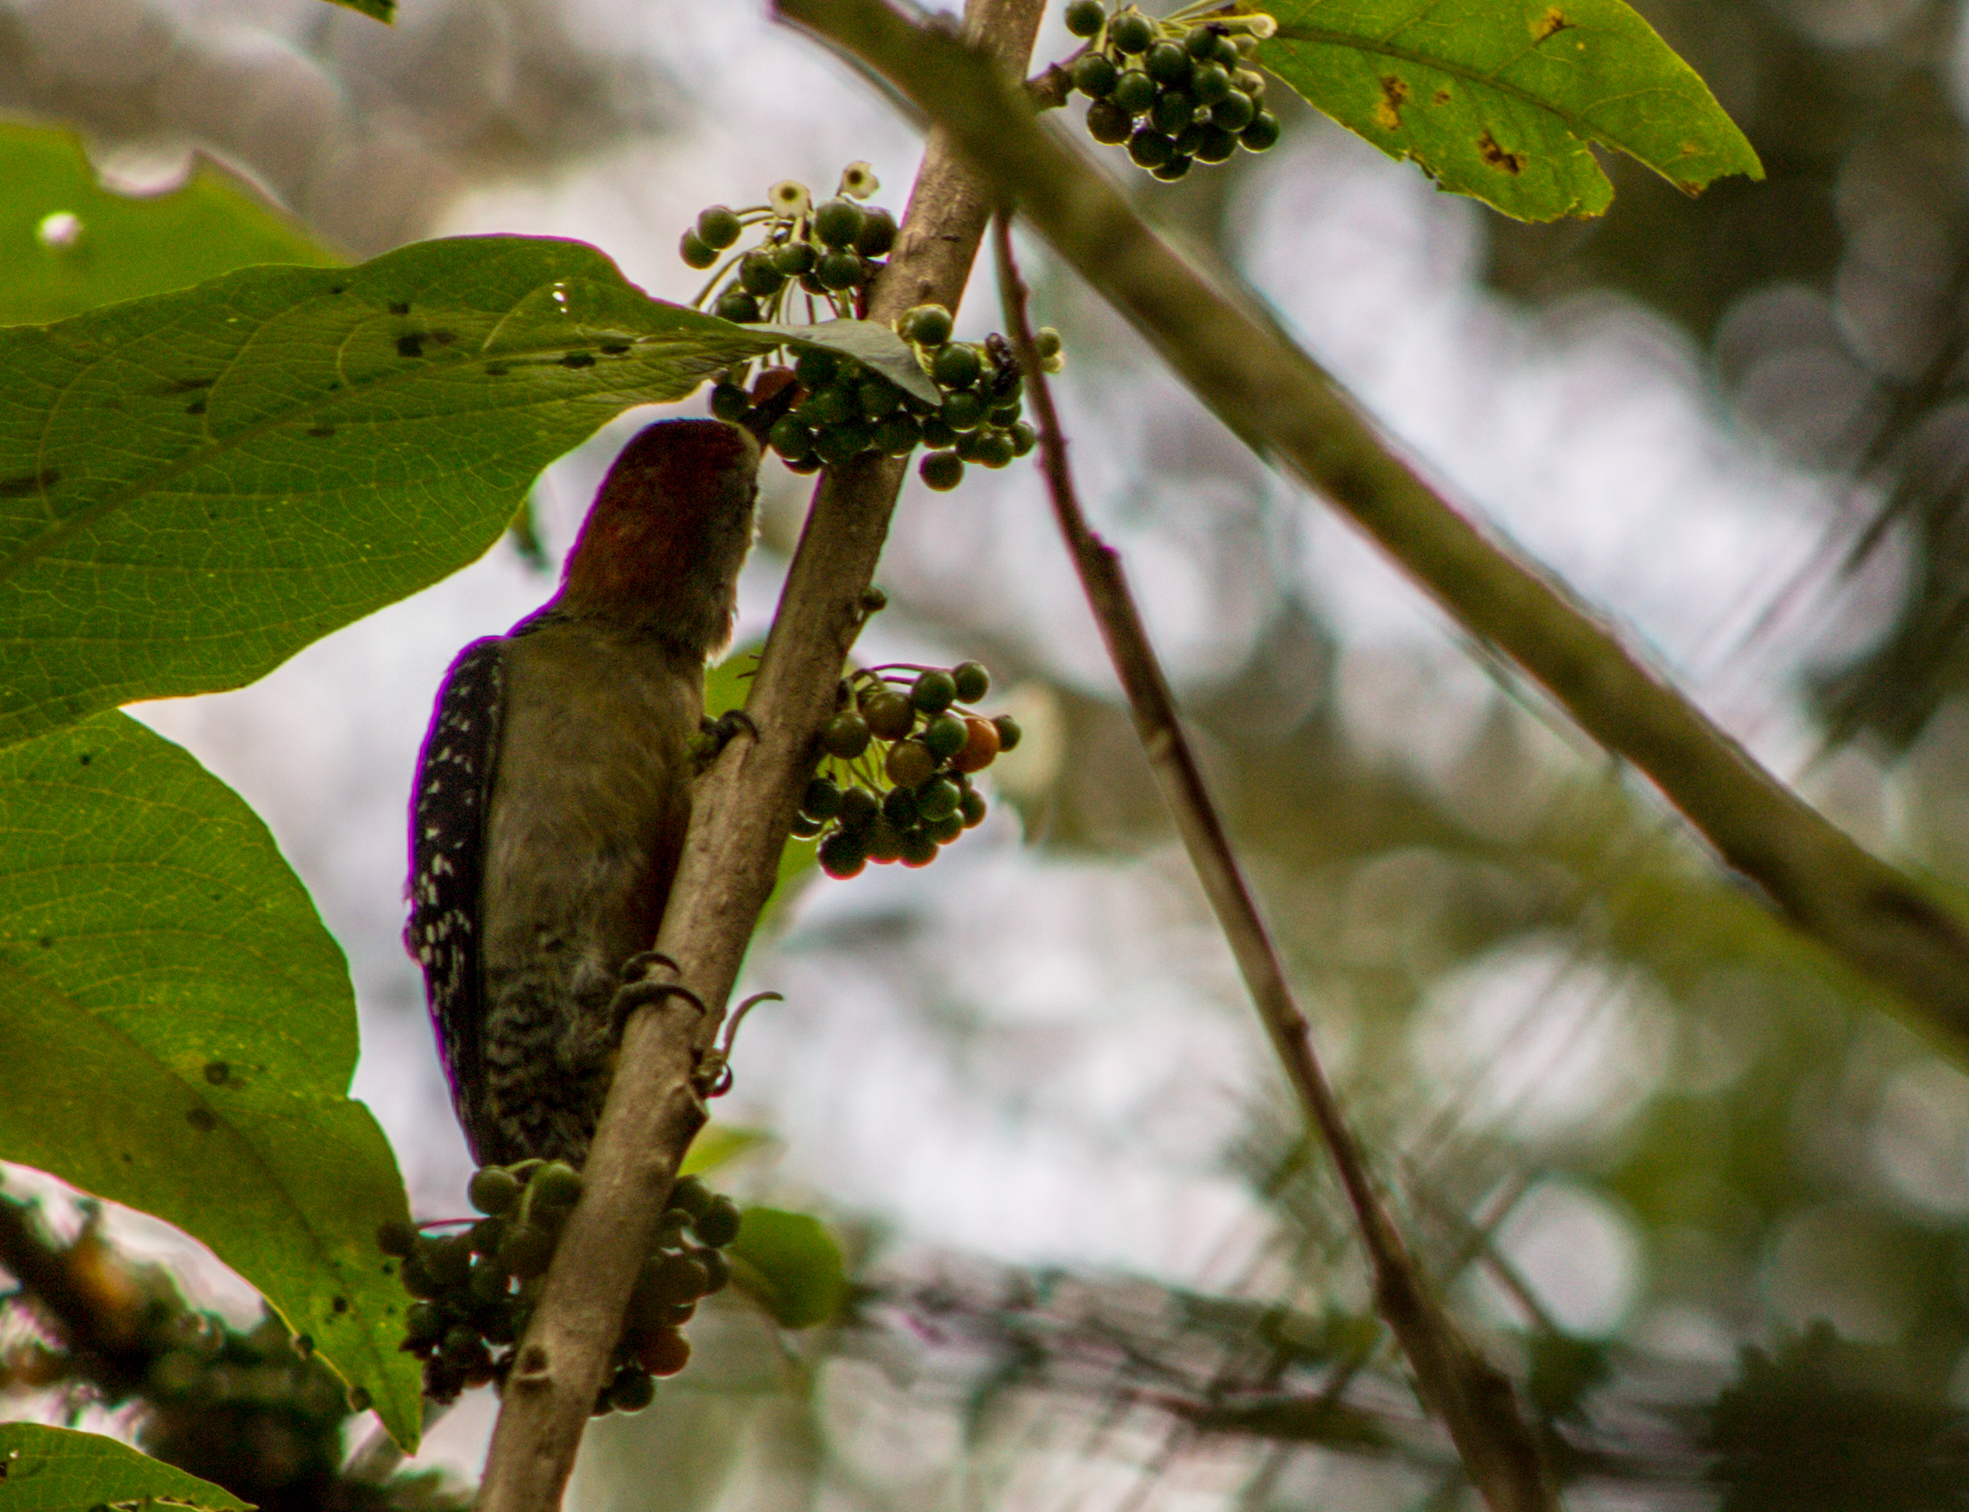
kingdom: Animalia
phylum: Chordata
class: Aves
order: Piciformes
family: Picidae
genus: Melanerpes
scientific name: Melanerpes rubricapillus
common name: Red-crowned woodpecker
